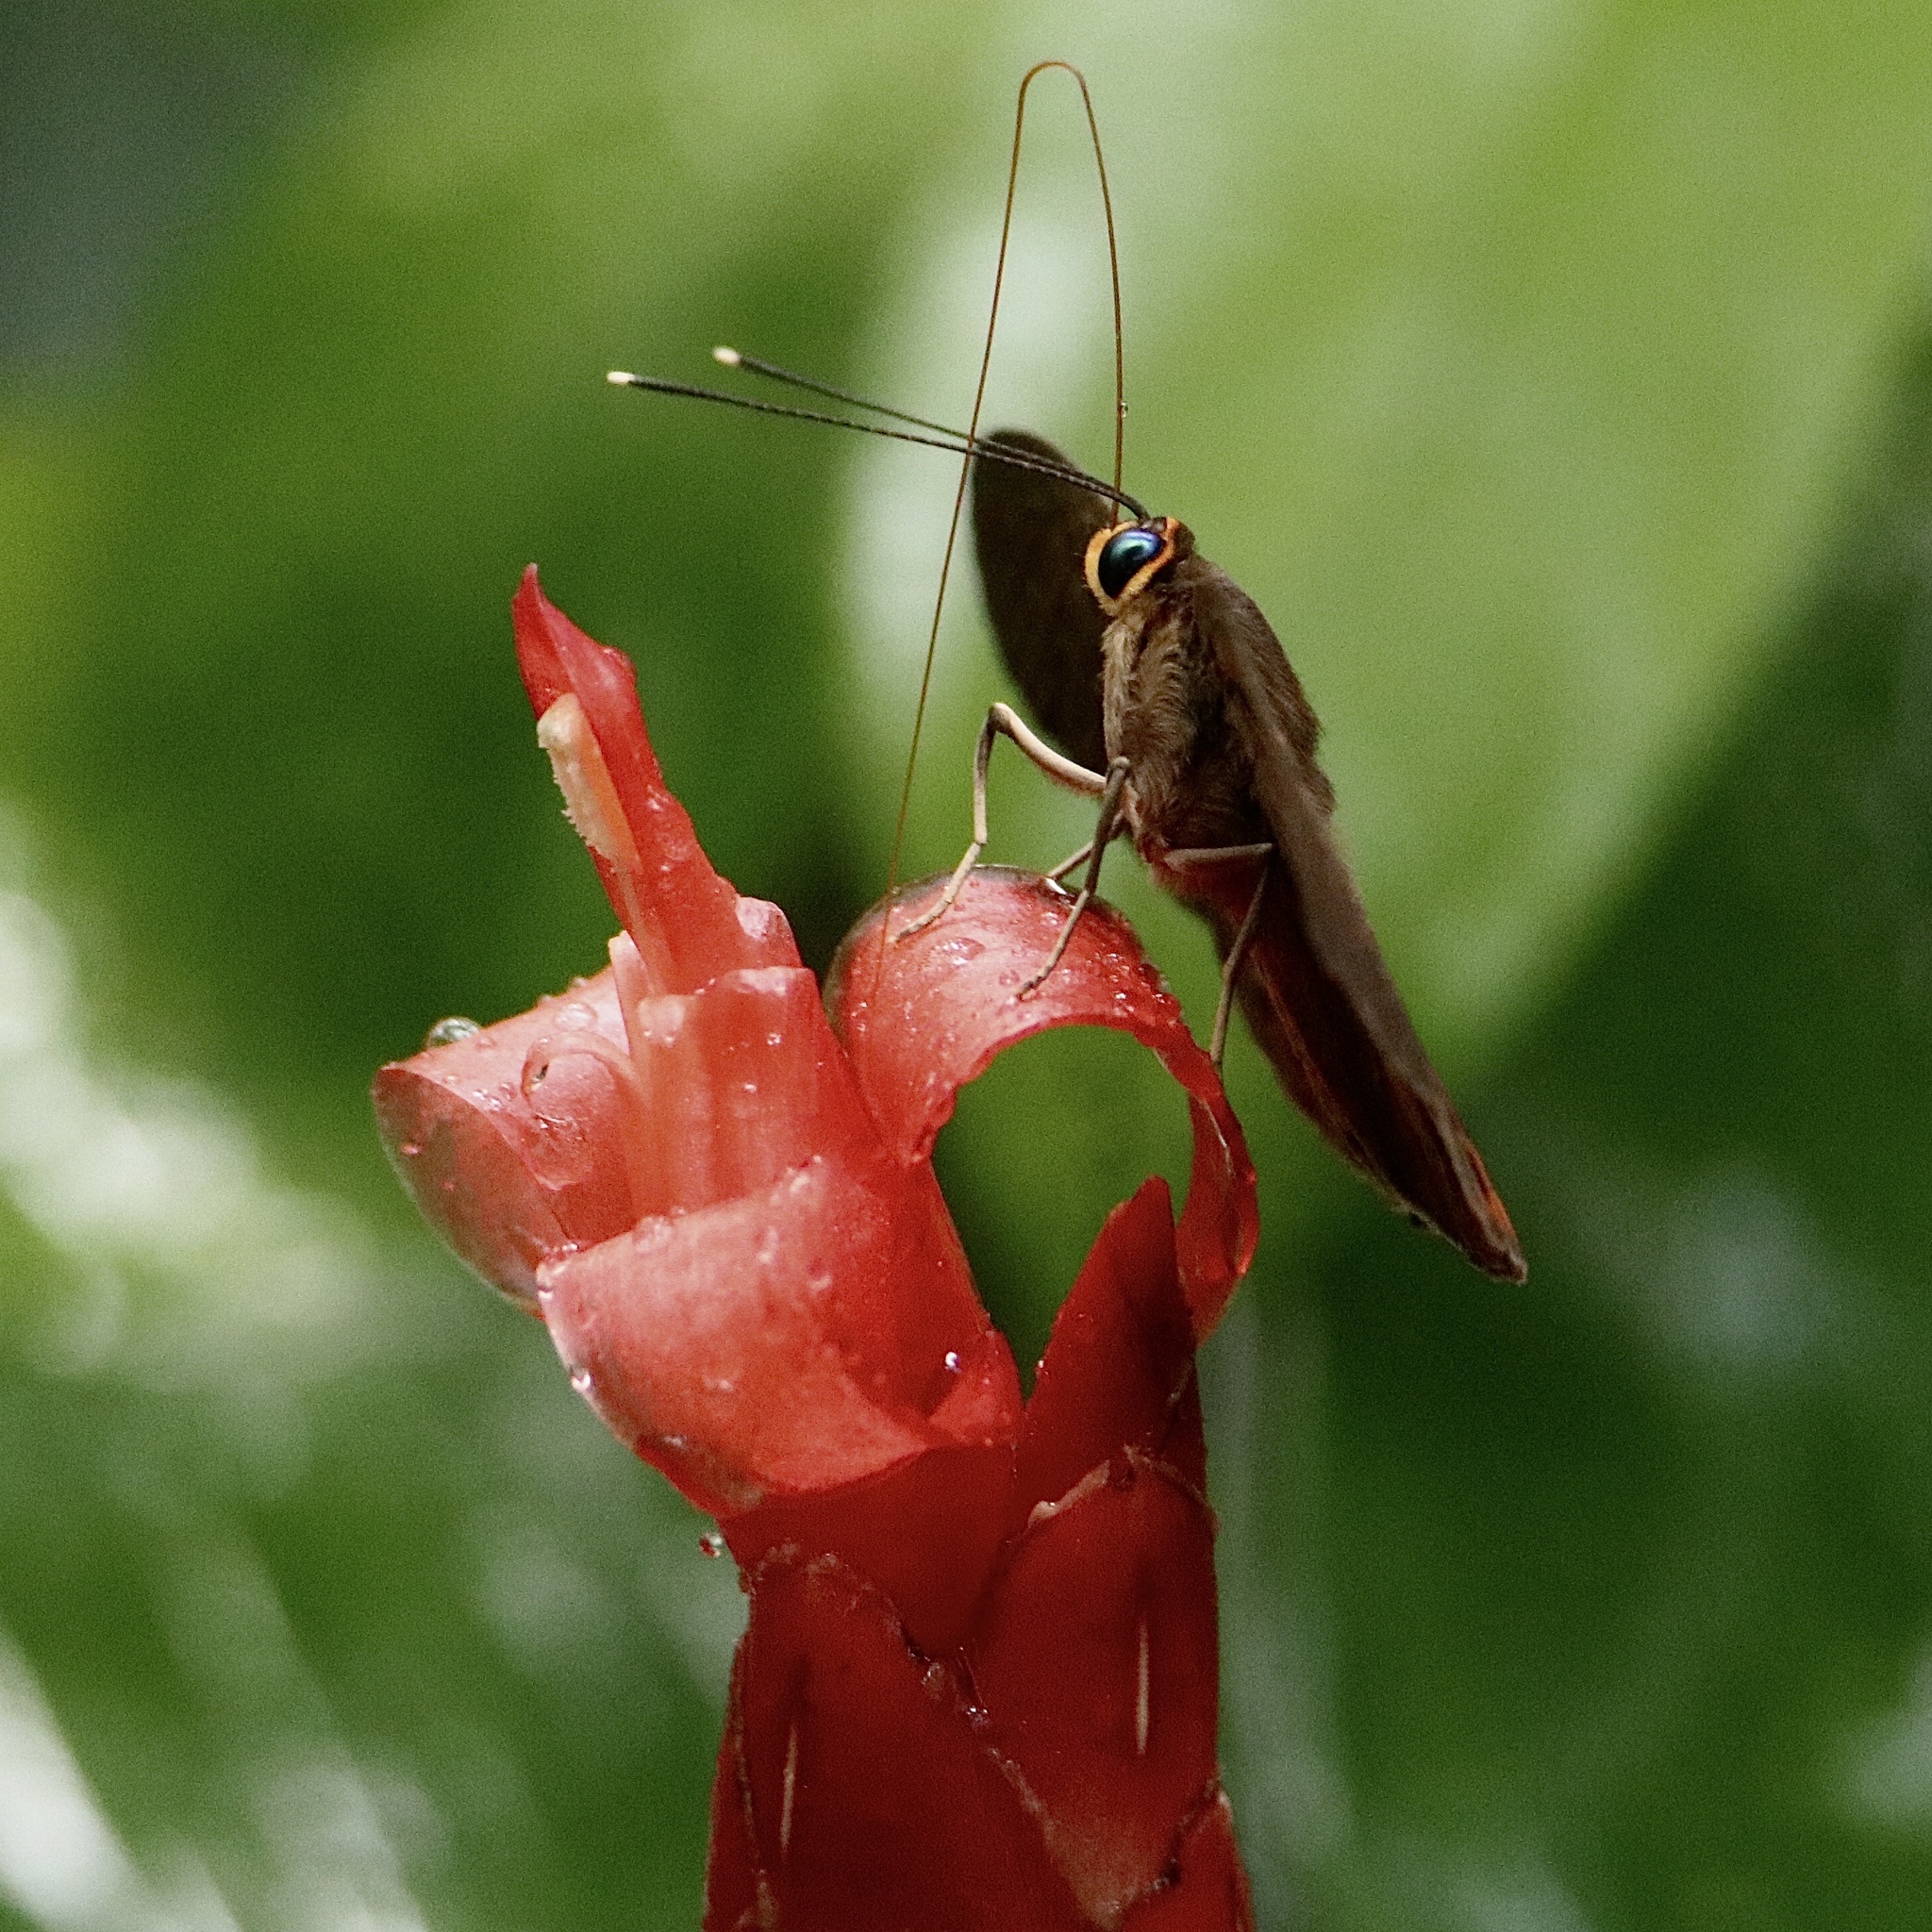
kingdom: Animalia
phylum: Cnidaria
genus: Eurybia
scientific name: Eurybia patrona
